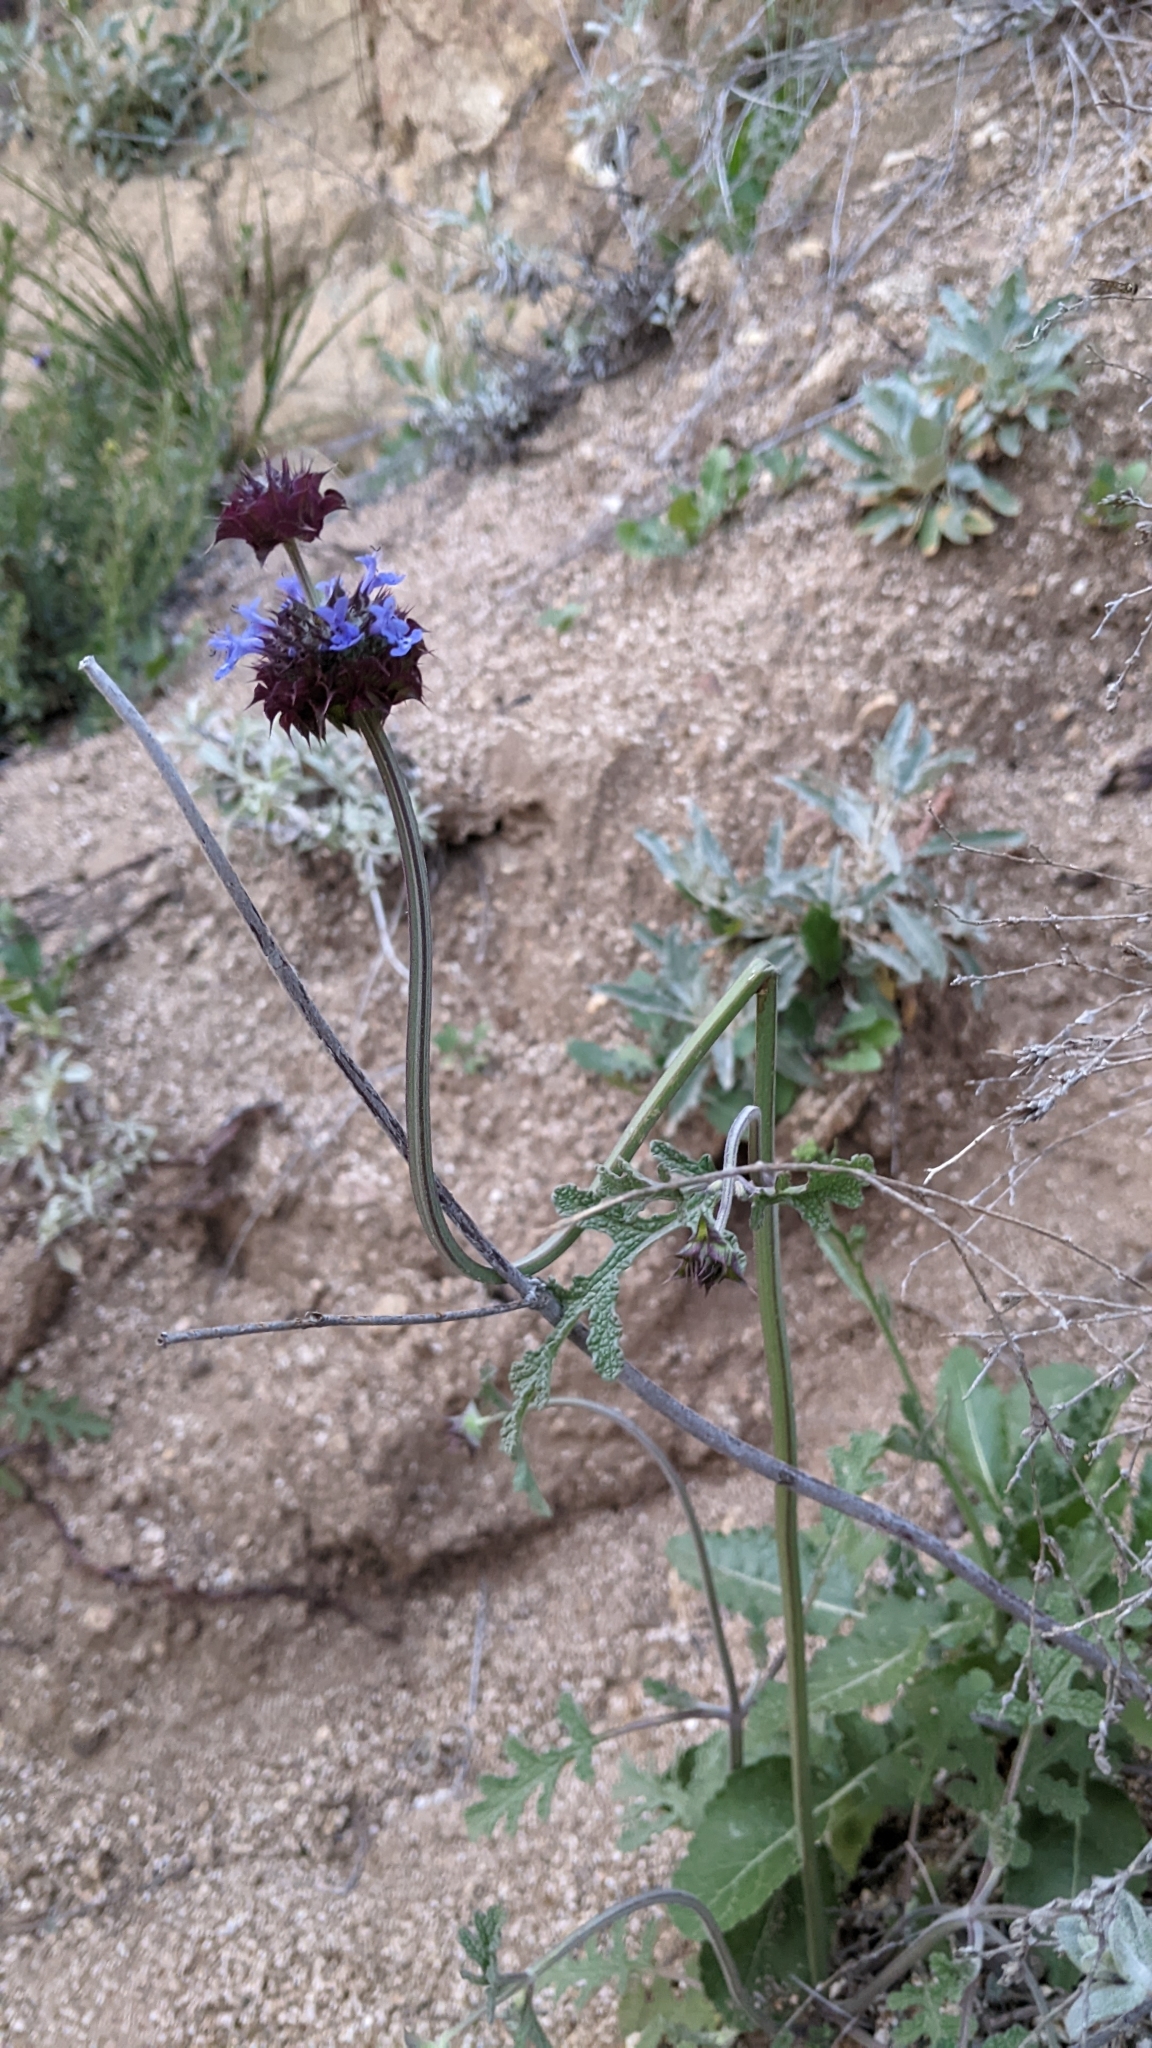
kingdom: Plantae
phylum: Tracheophyta
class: Magnoliopsida
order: Lamiales
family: Lamiaceae
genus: Salvia
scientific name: Salvia columbariae
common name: Chia
